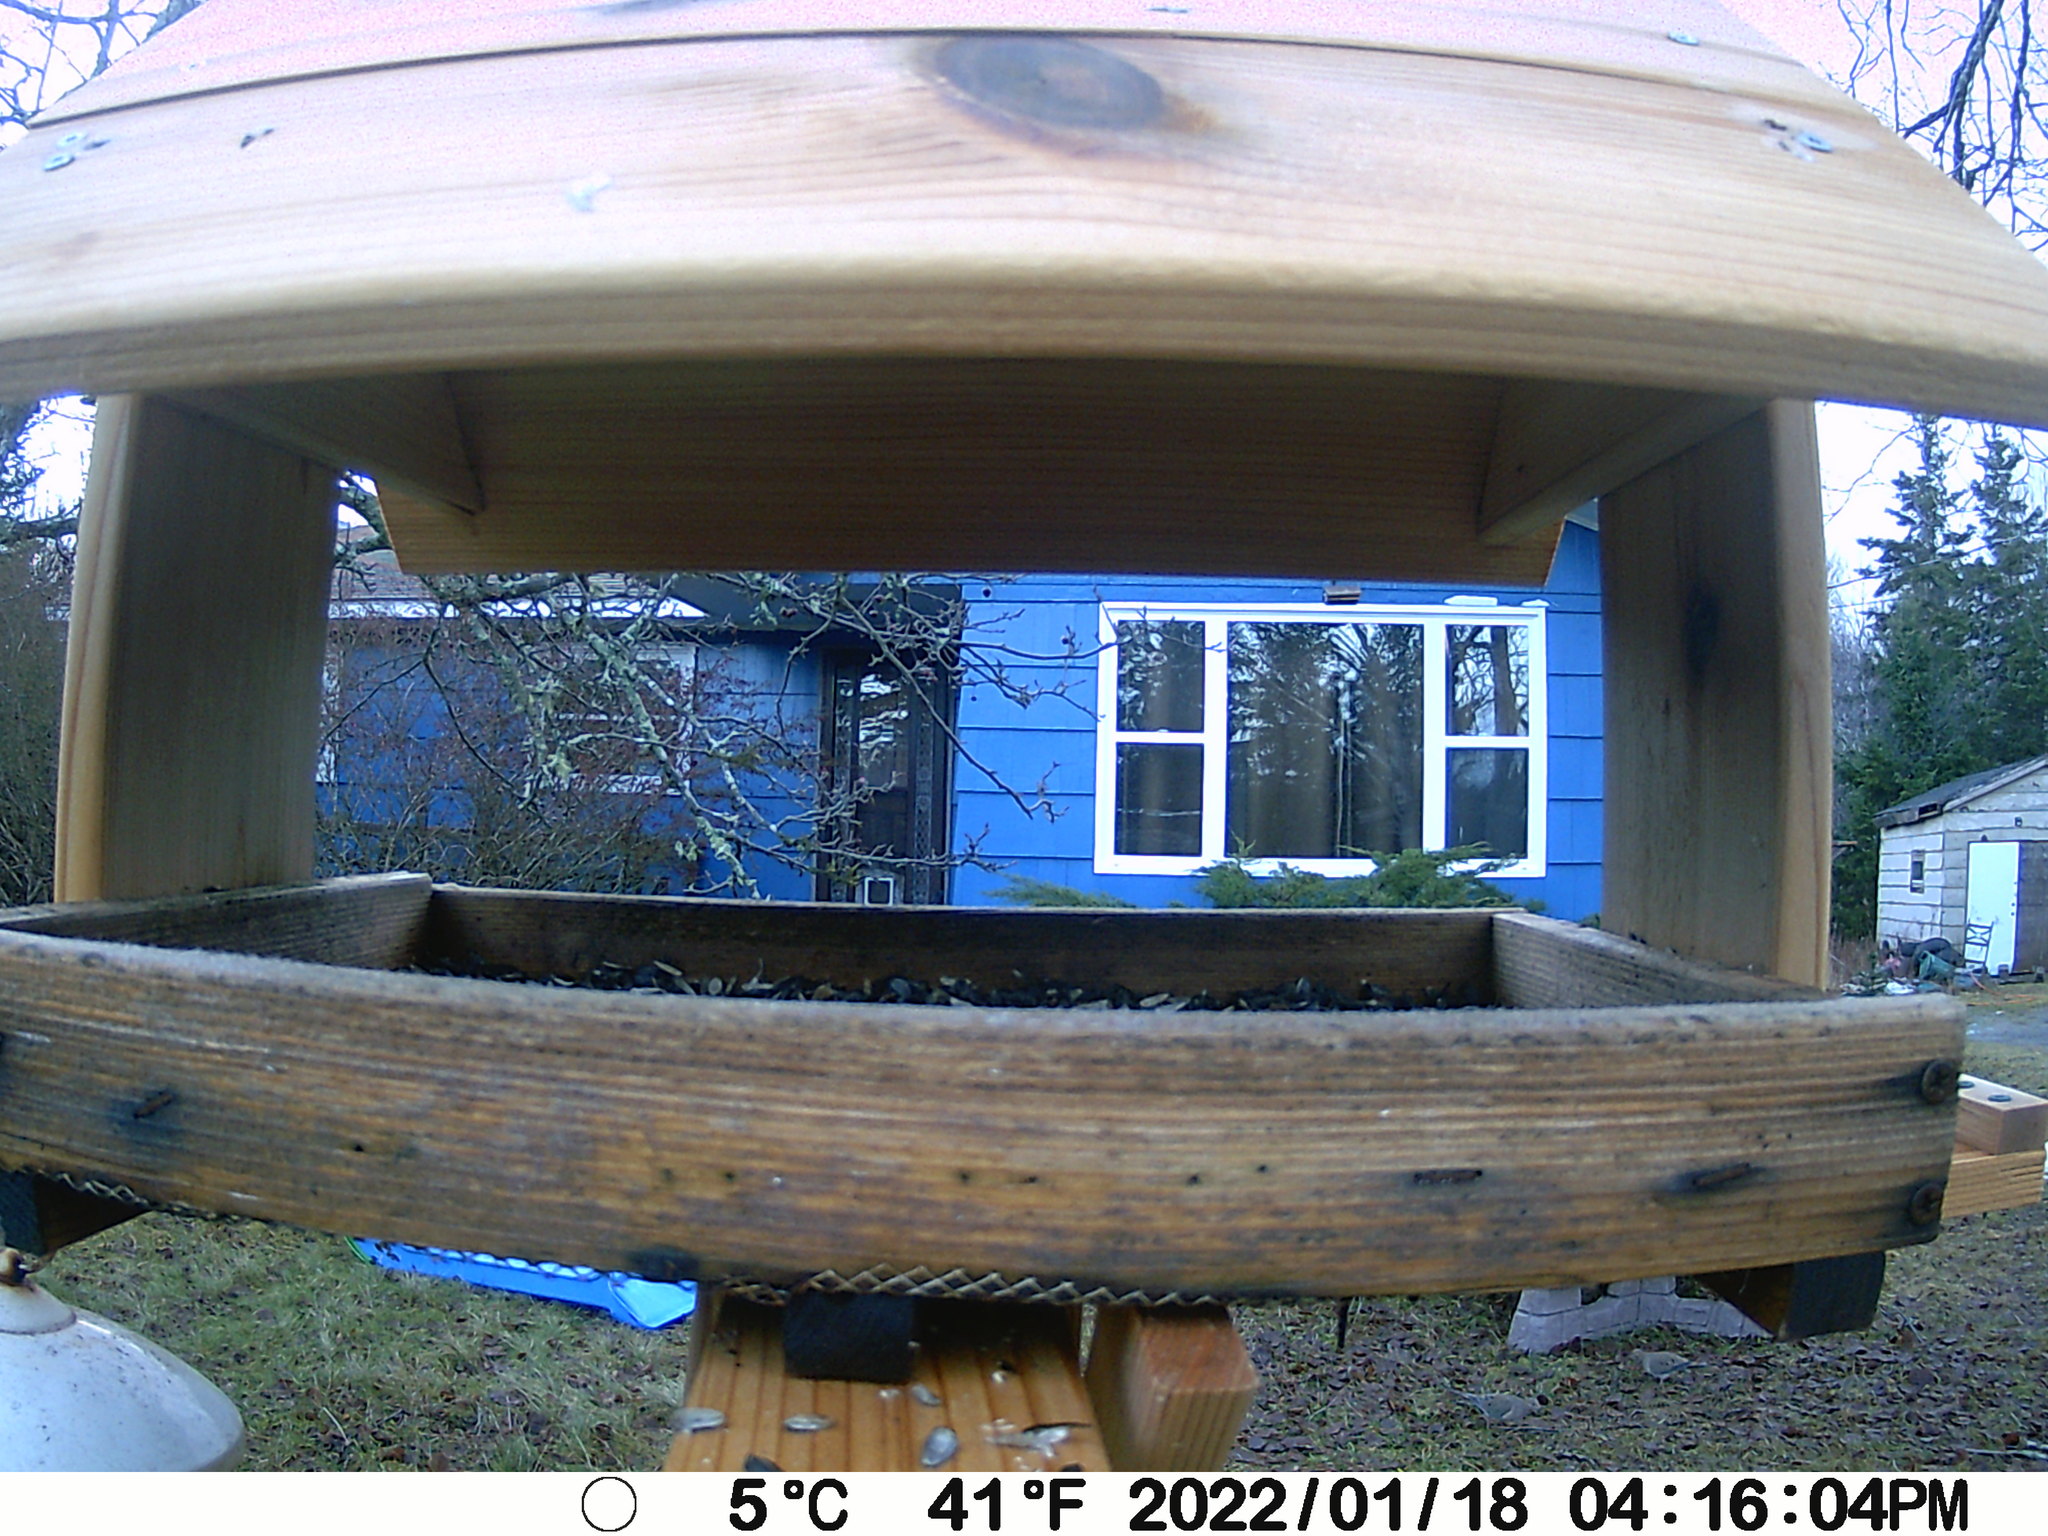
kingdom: Animalia
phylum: Chordata
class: Aves
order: Columbiformes
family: Columbidae
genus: Zenaida
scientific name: Zenaida macroura
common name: Mourning dove
